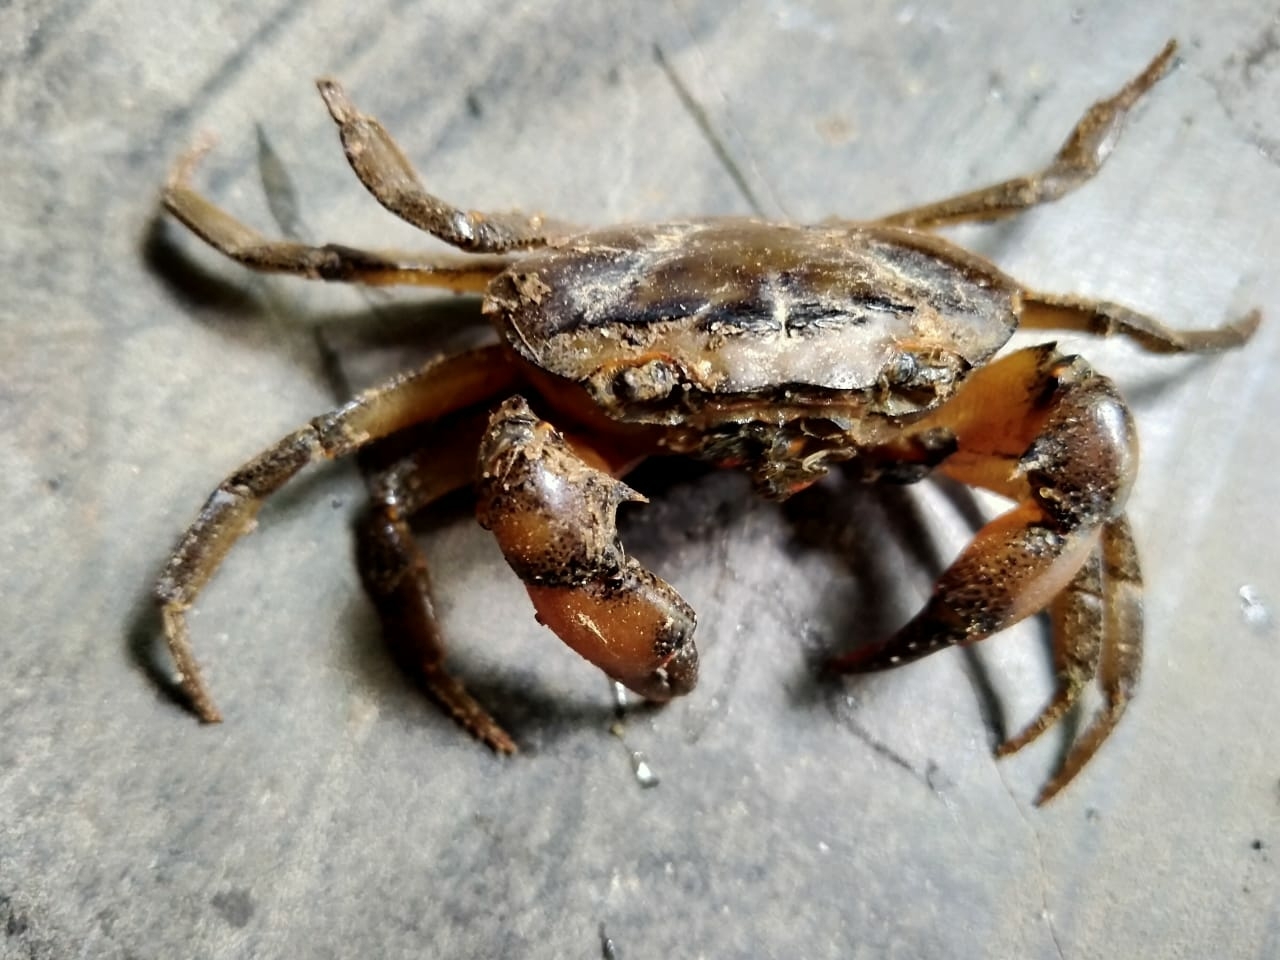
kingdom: Animalia
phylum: Arthropoda
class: Malacostraca
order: Decapoda
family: Gecarcinucidae
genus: Sartoriana
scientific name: Sartoriana spinigera
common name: Rusty crab
